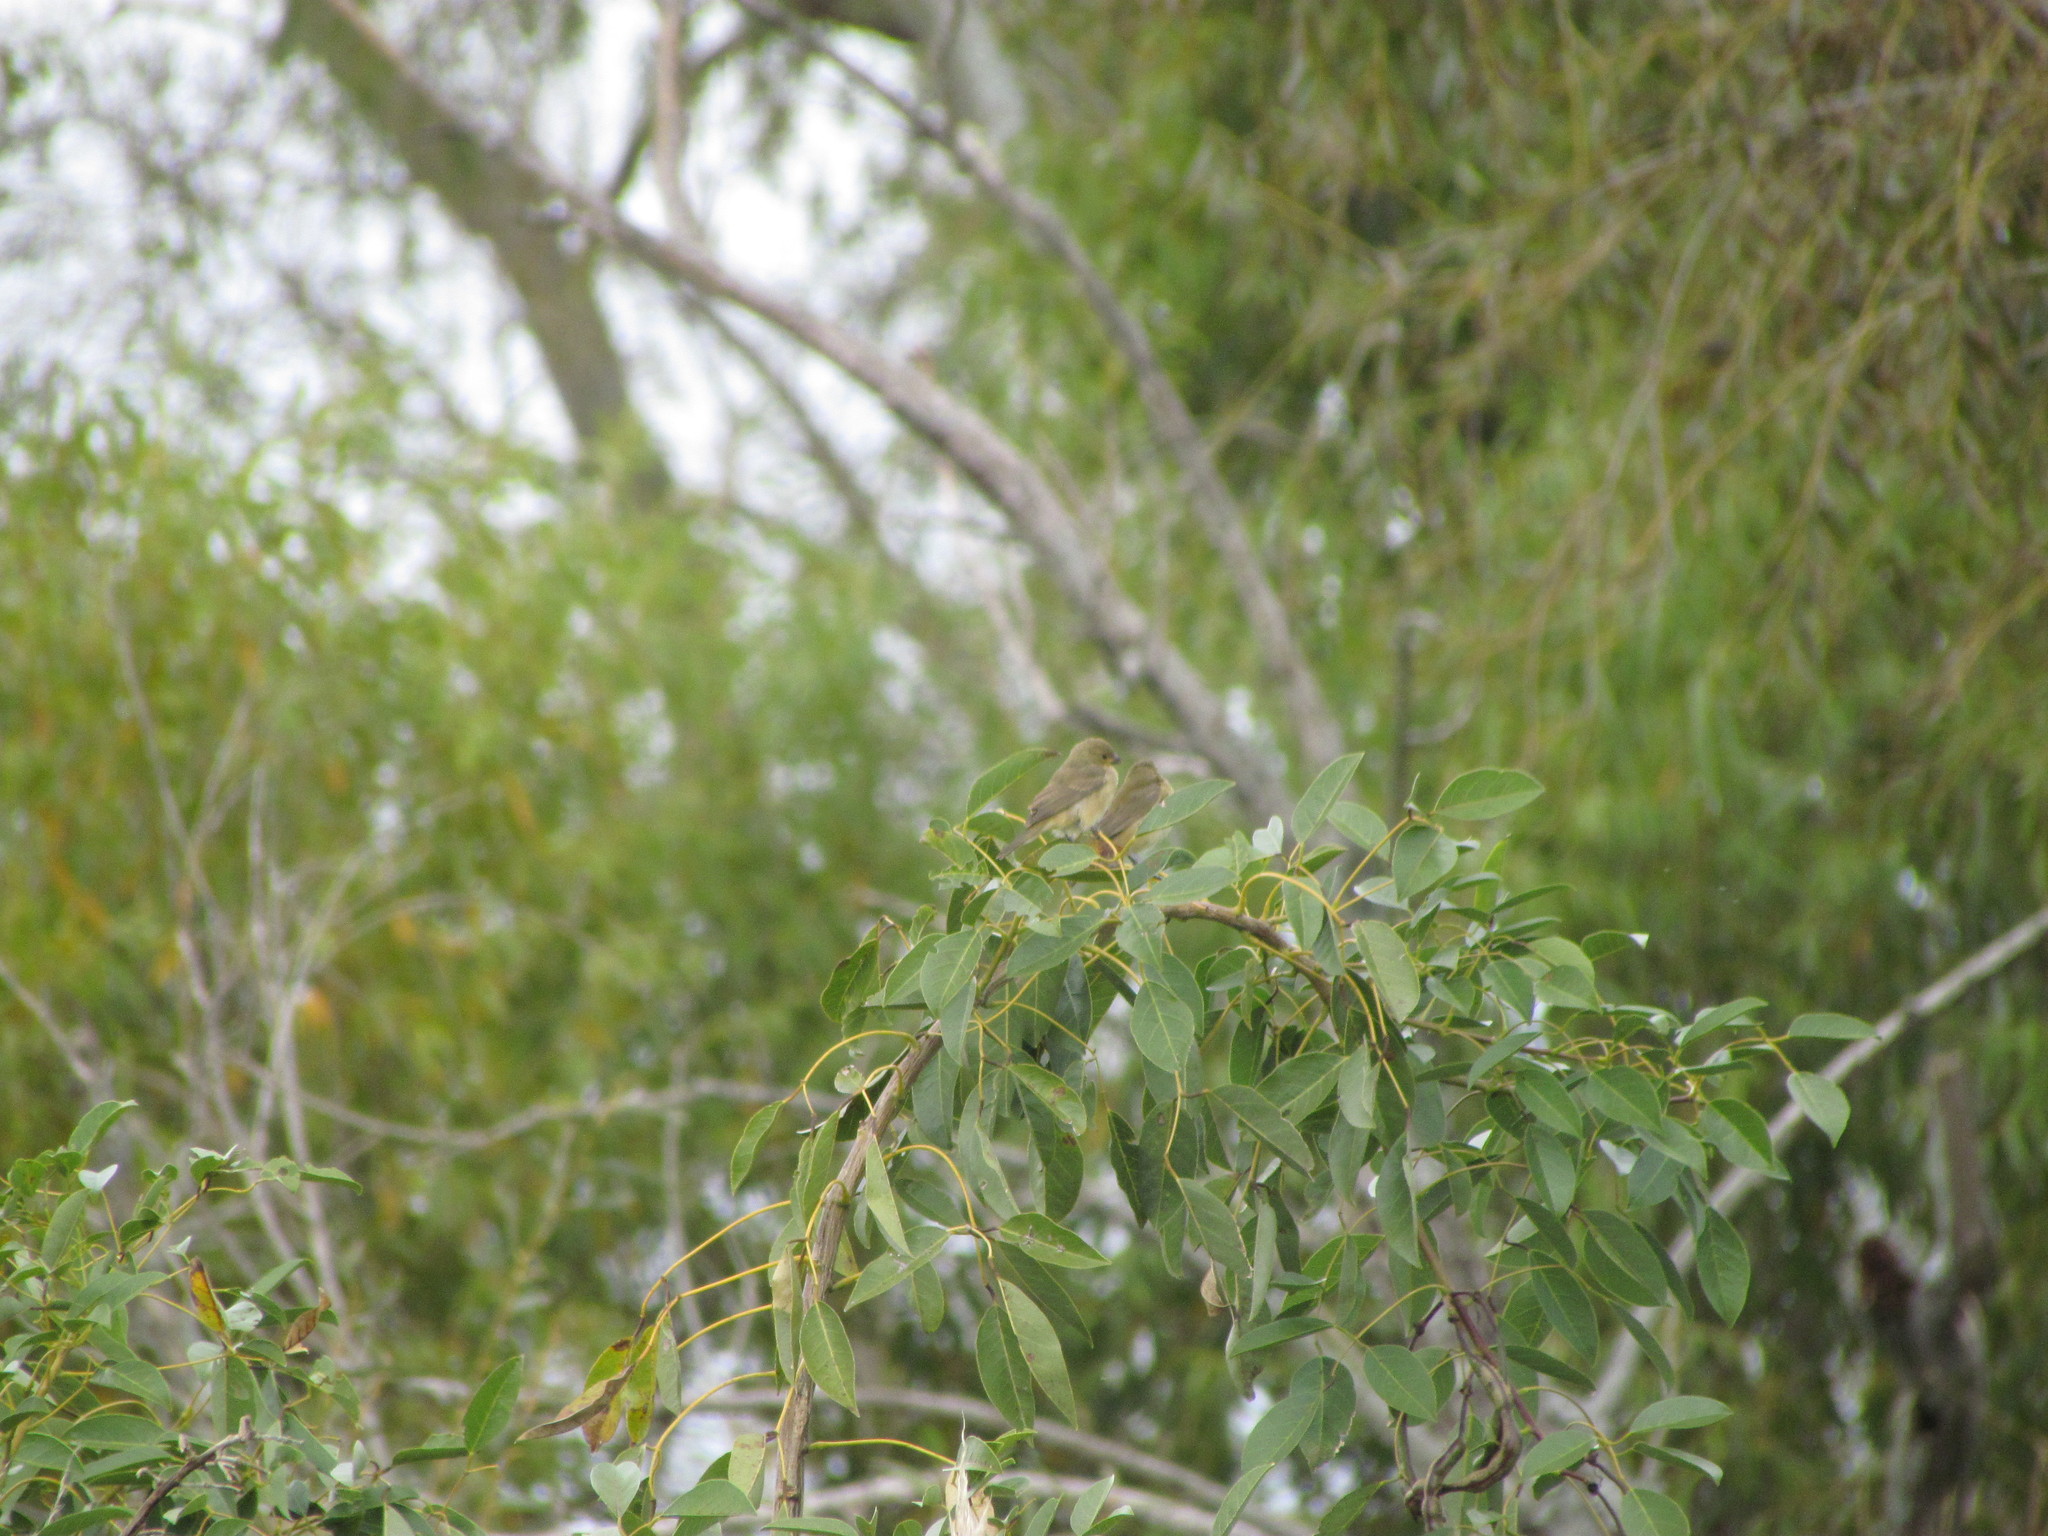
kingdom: Animalia
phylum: Chordata
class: Aves
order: Passeriformes
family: Thraupidae
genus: Sporophila
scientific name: Sporophila caerulescens
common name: Double-collared seedeater
